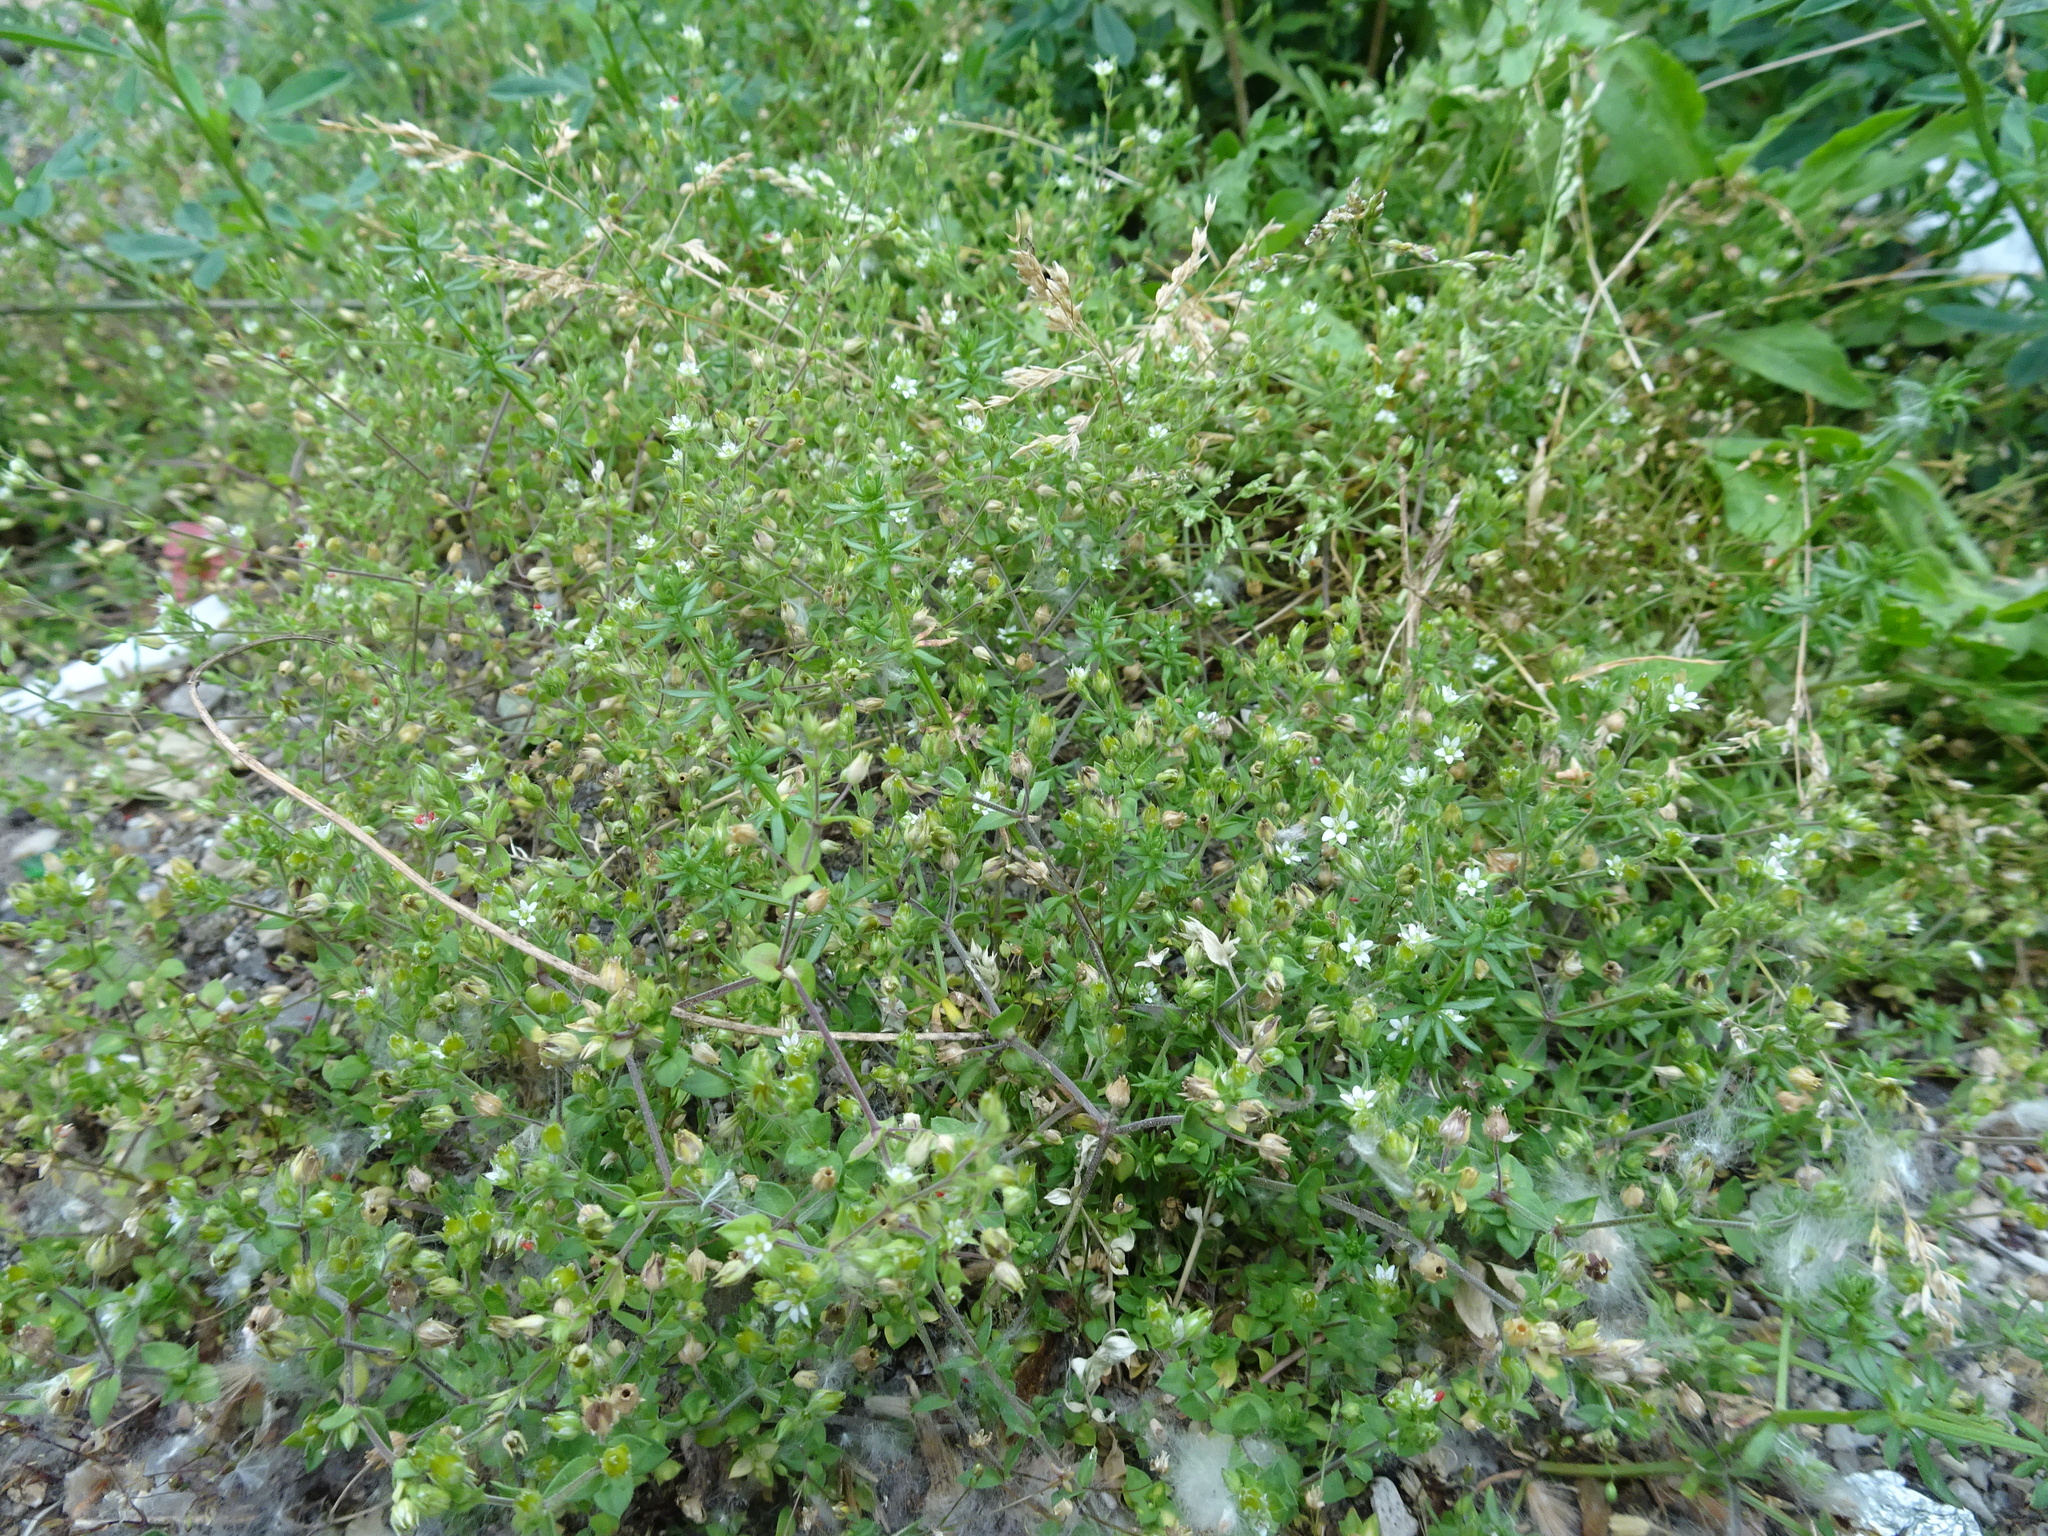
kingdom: Plantae
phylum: Tracheophyta
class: Magnoliopsida
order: Caryophyllales
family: Caryophyllaceae
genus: Arenaria
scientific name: Arenaria serpyllifolia
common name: Thyme-leaved sandwort
